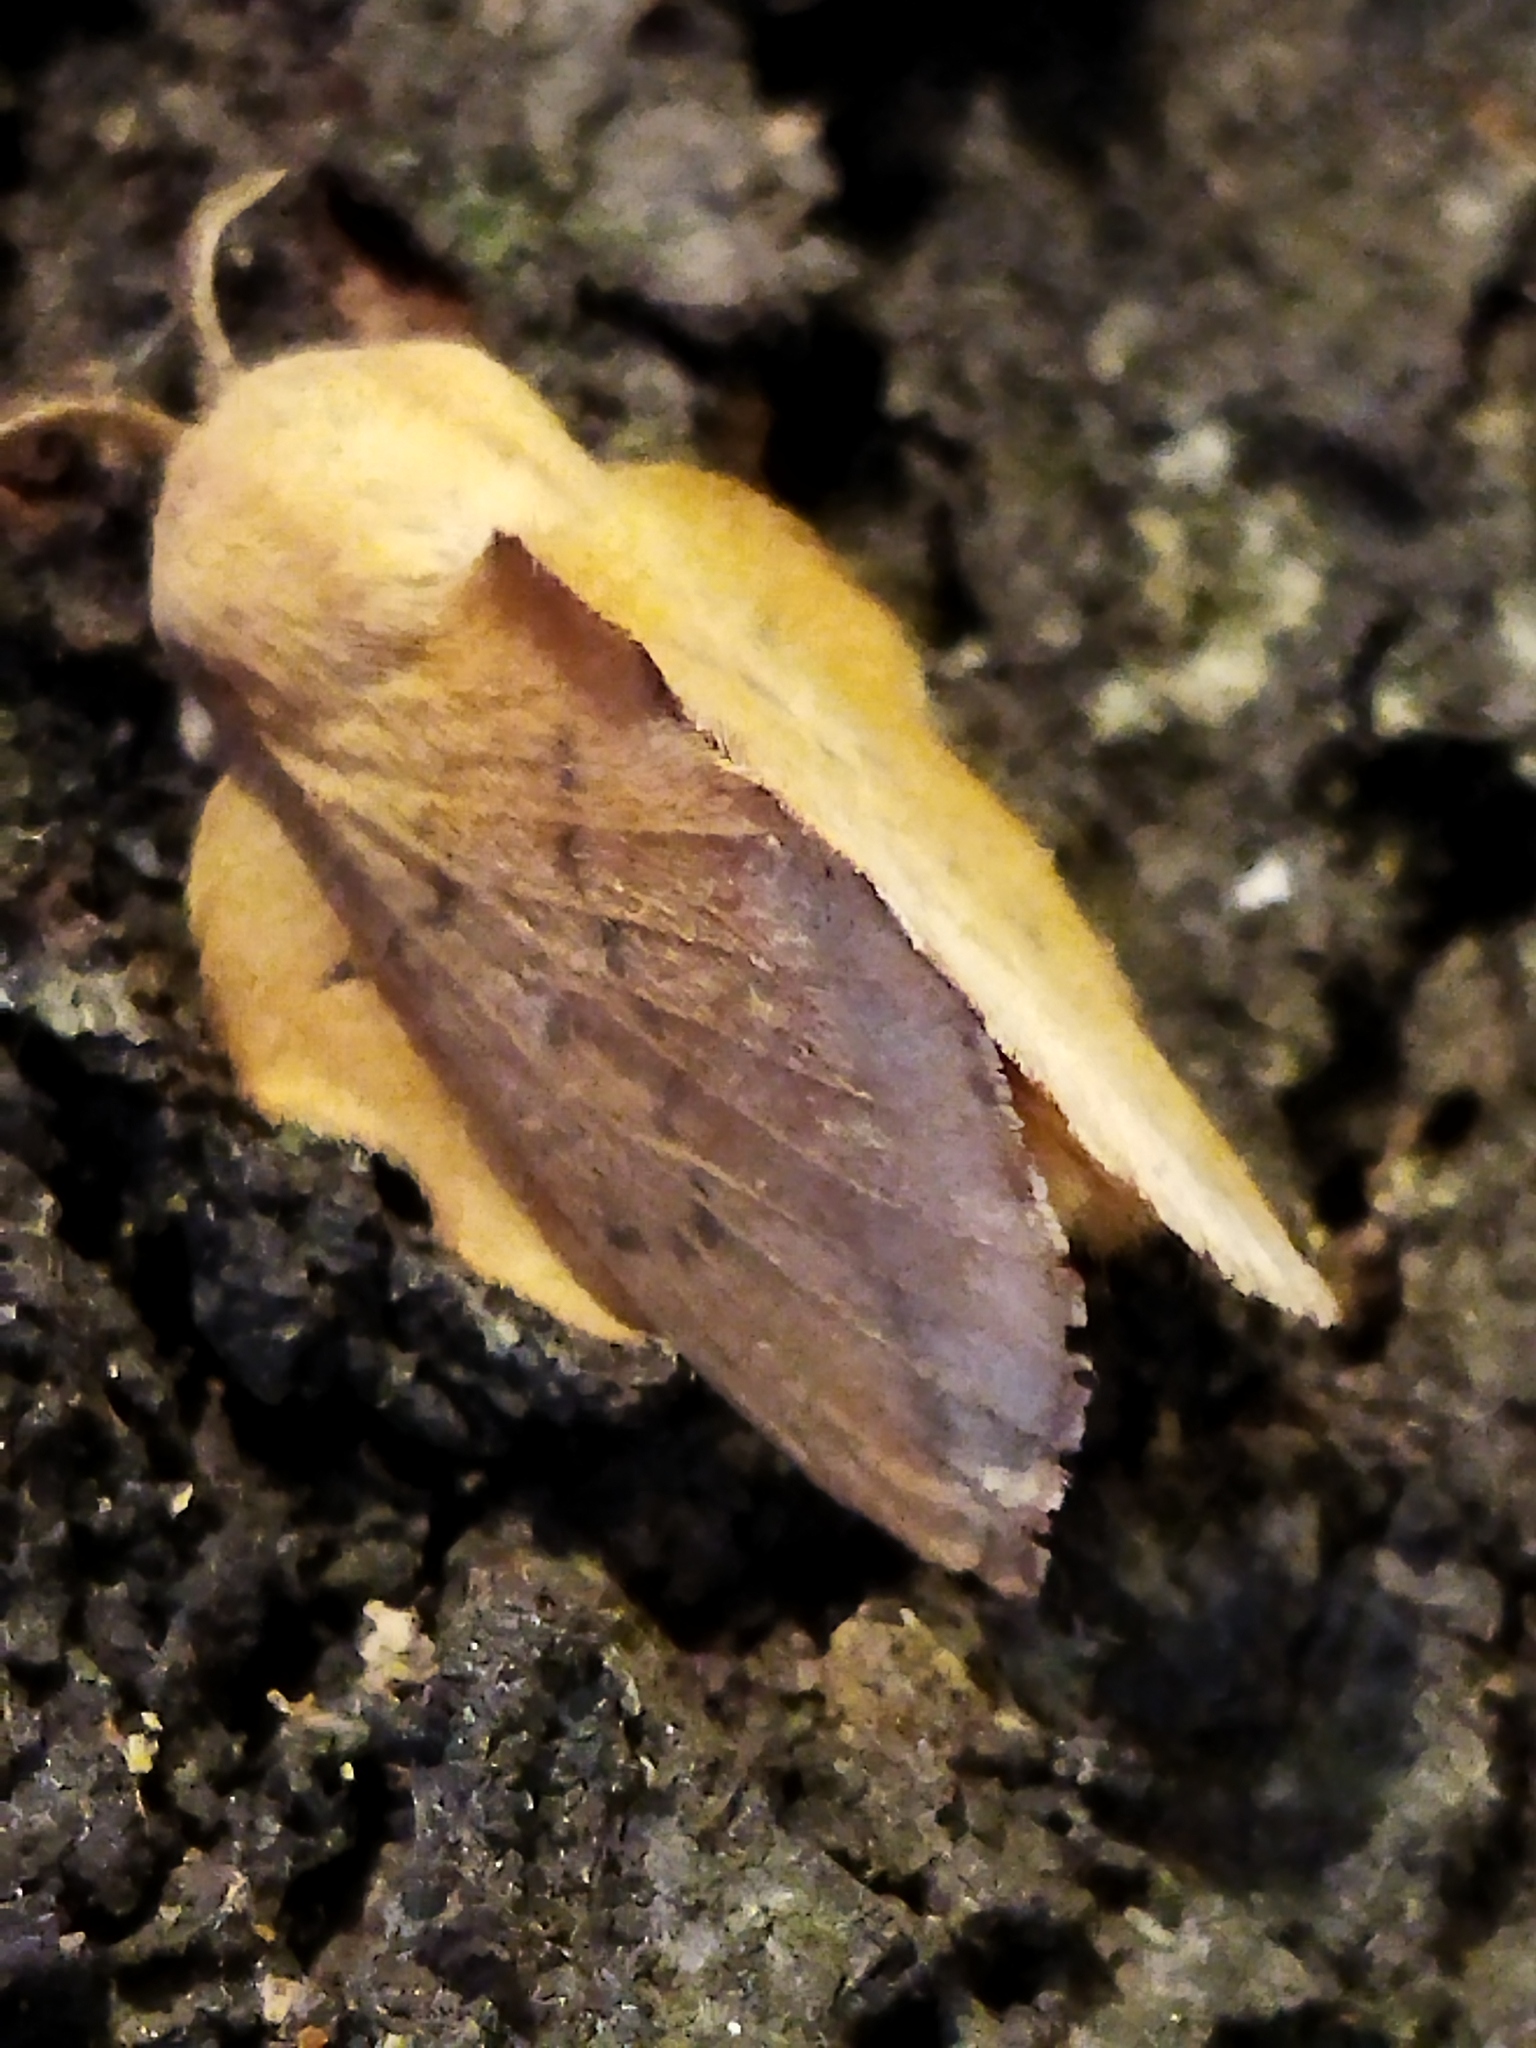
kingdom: Animalia
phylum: Arthropoda
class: Insecta
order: Lepidoptera
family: Lasiocampidae
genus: Phyllodesma
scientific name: Phyllodesma tremulifolia
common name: Aspen lappet
